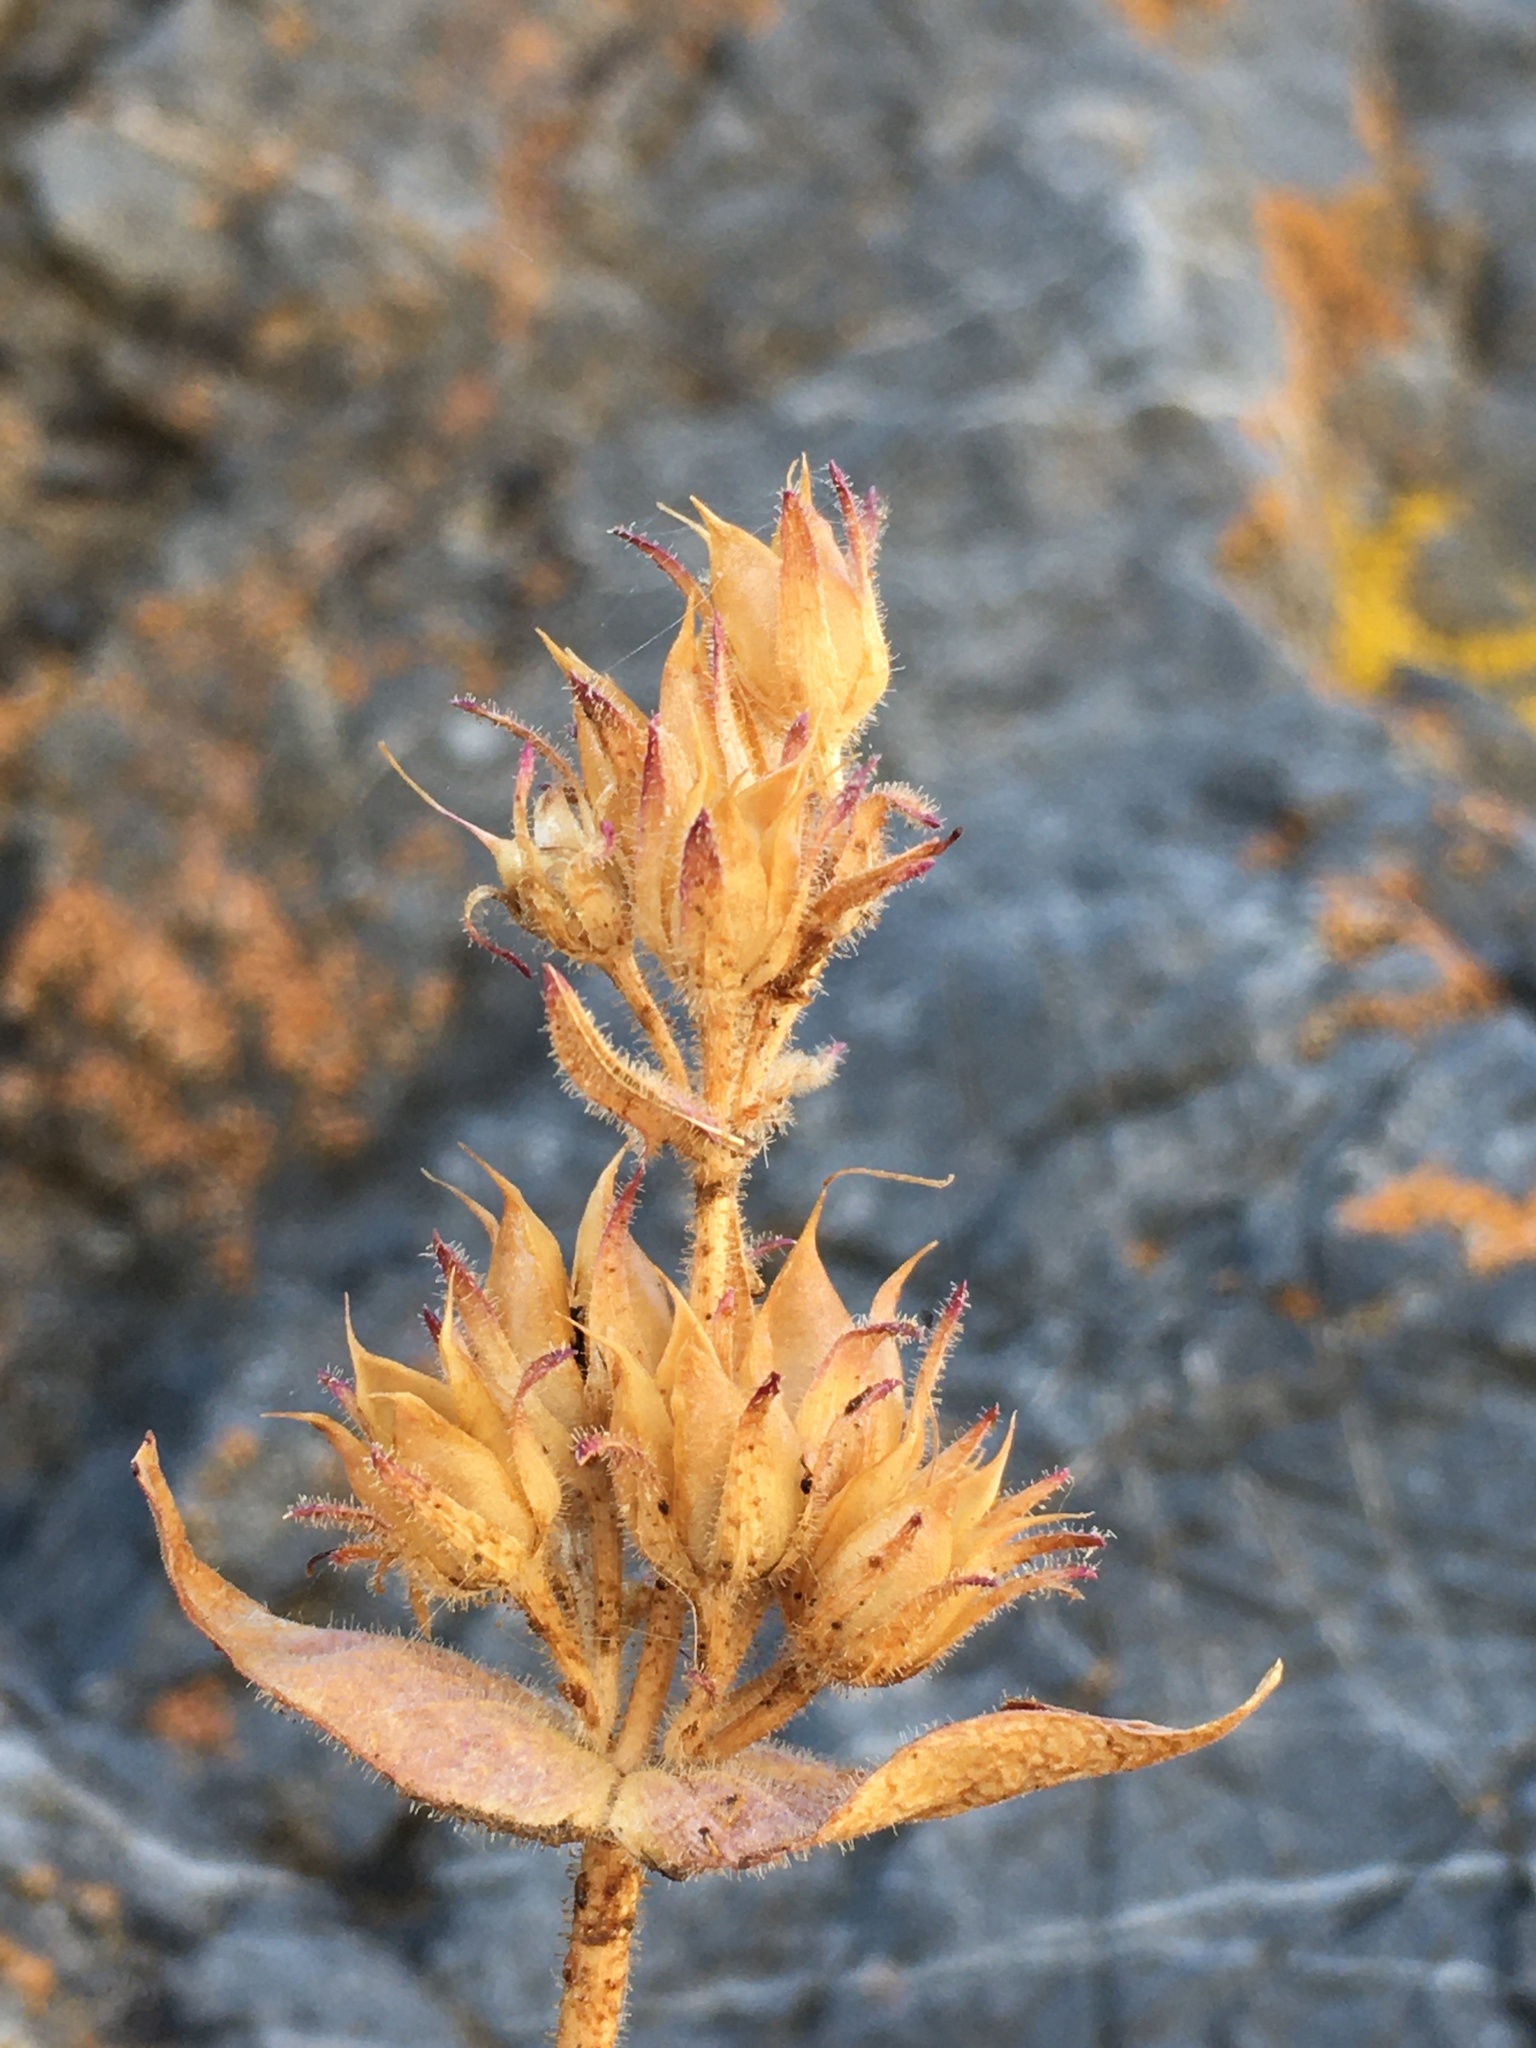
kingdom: Plantae
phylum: Tracheophyta
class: Magnoliopsida
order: Lamiales
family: Plantaginaceae
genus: Penstemon
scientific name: Penstemon calcareus
